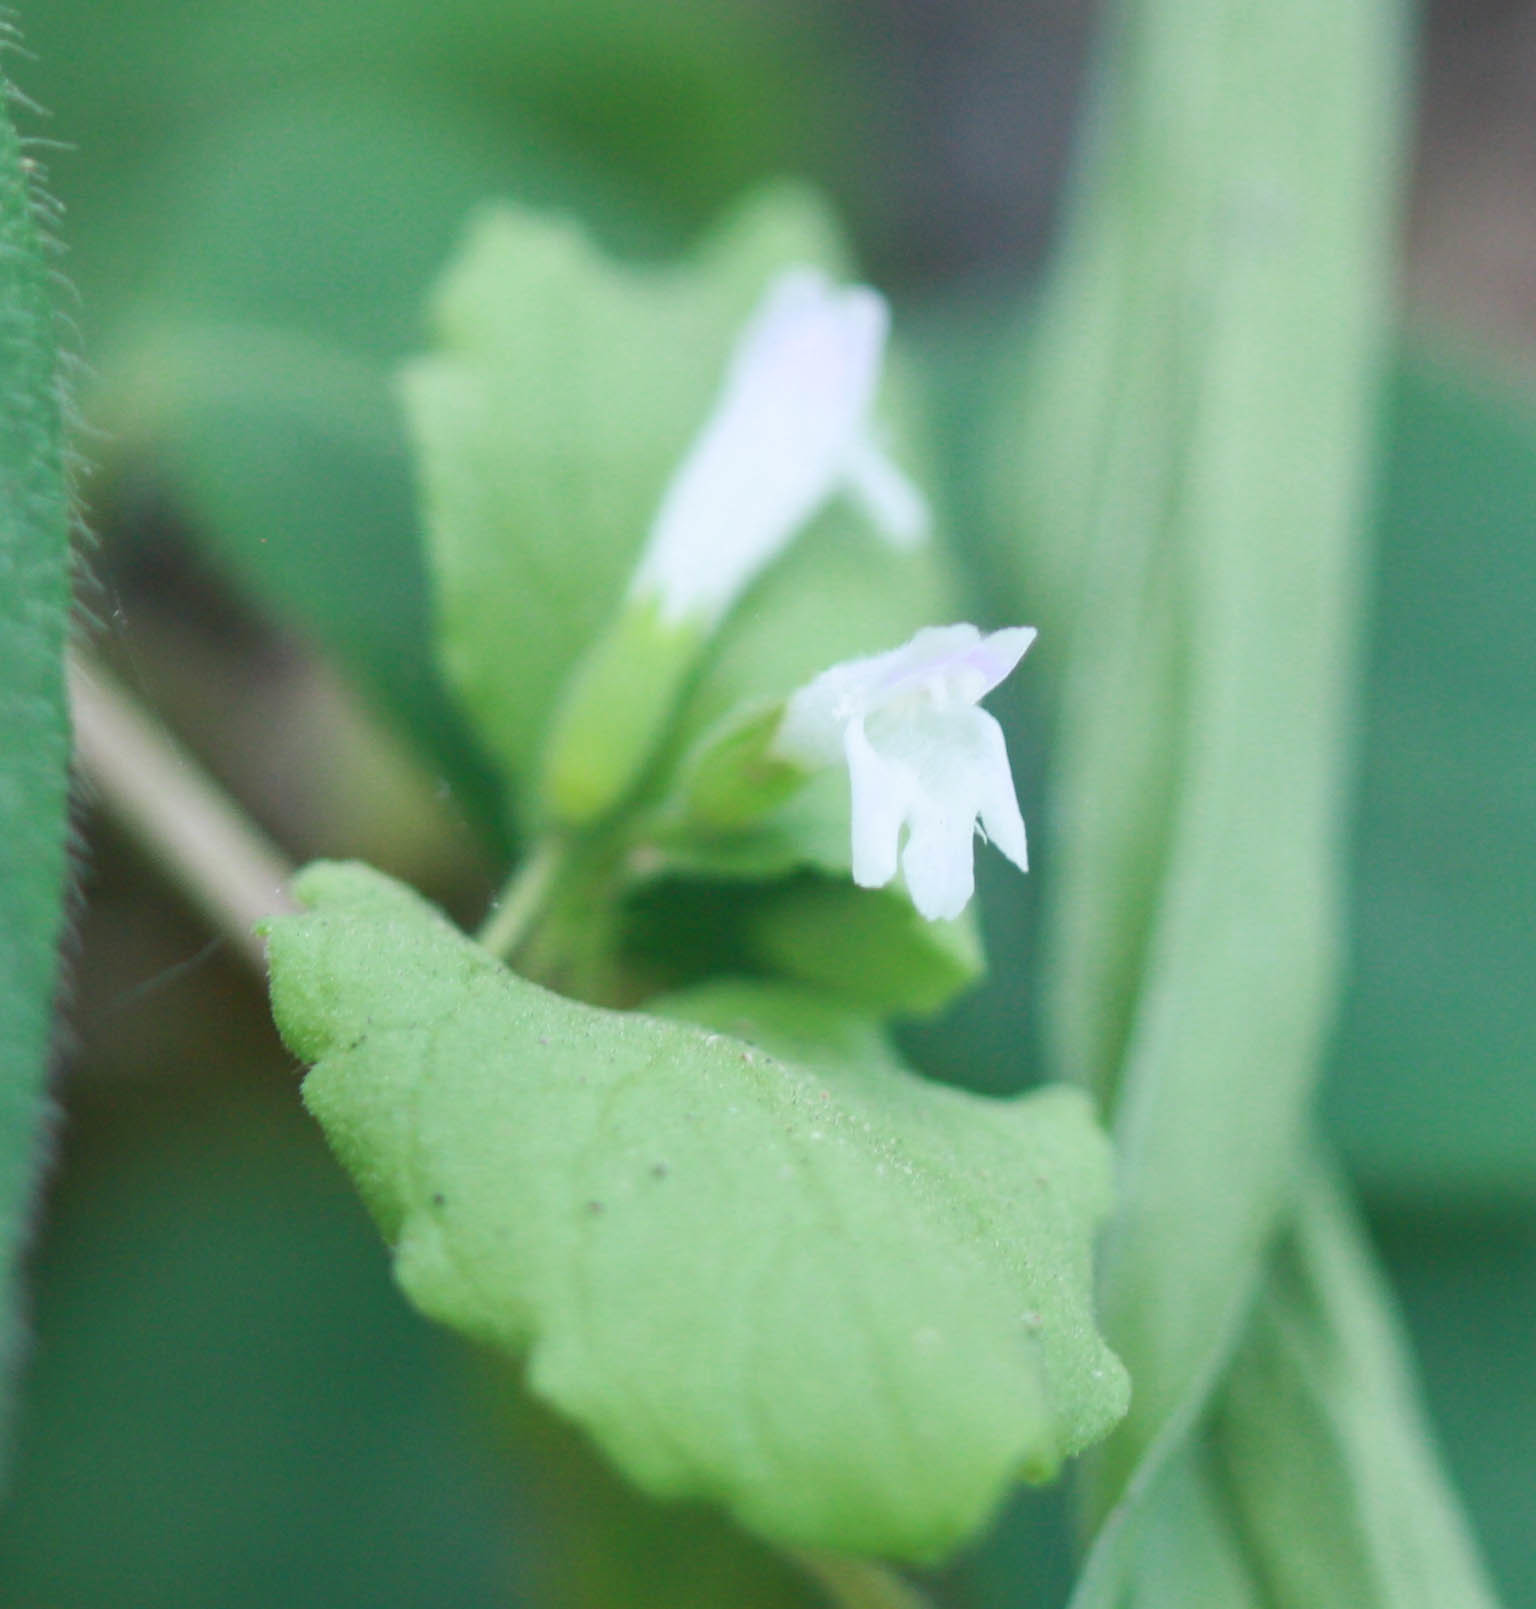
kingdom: Plantae
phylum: Tracheophyta
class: Magnoliopsida
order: Lamiales
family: Lamiaceae
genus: Micromeria
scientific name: Micromeria douglasii
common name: Yerba buena
